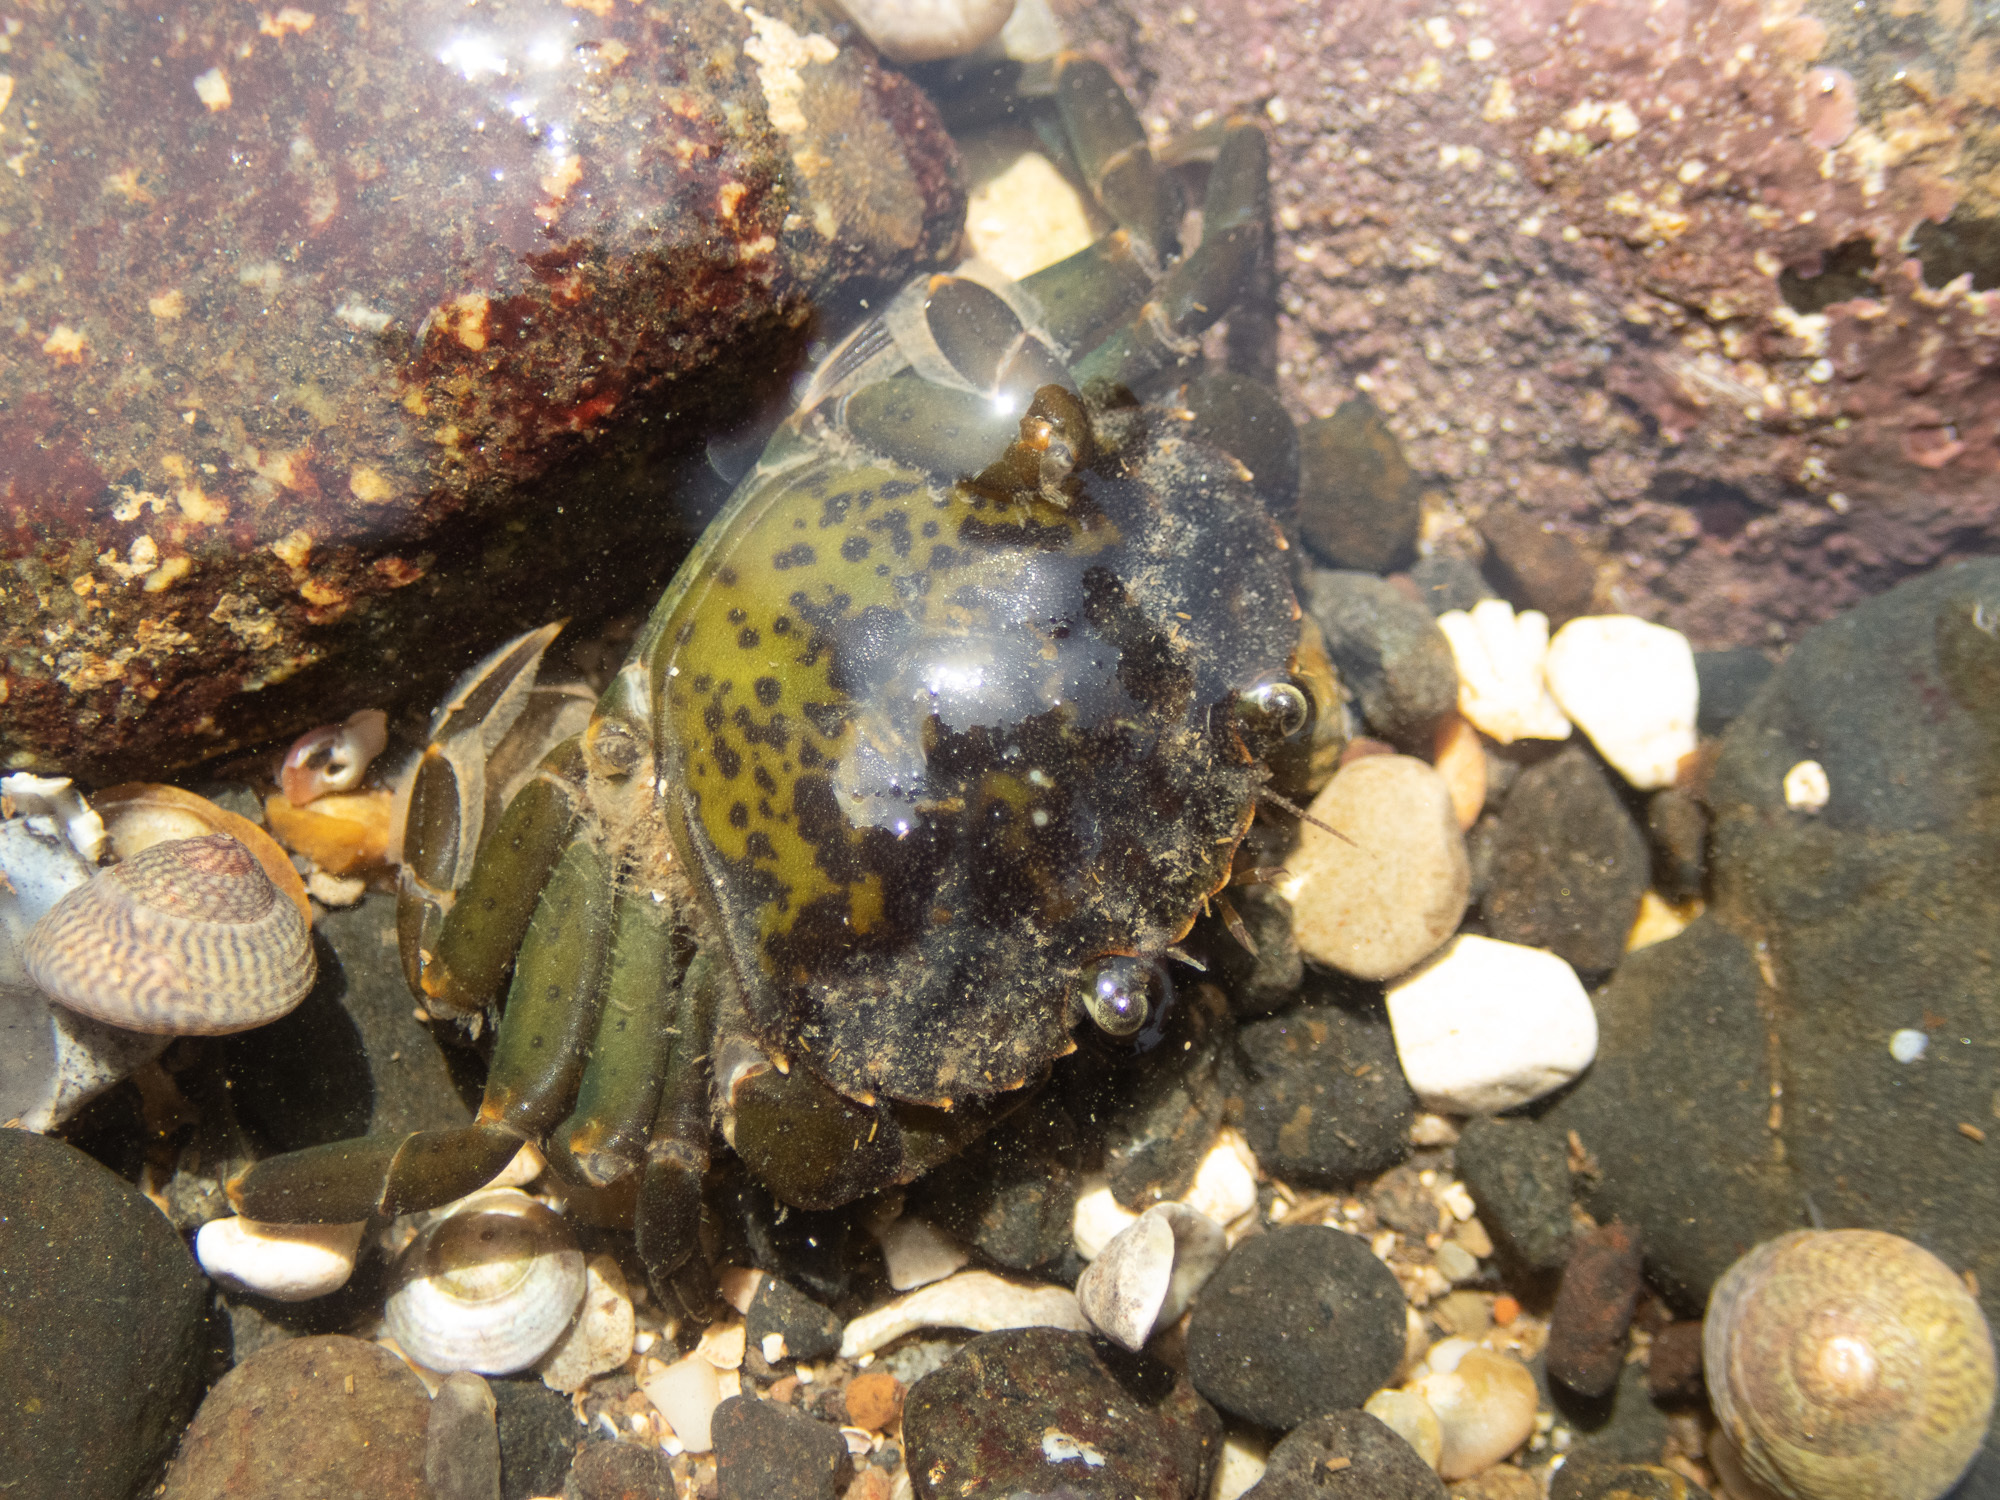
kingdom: Animalia
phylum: Arthropoda
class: Malacostraca
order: Decapoda
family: Carcinidae
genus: Carcinus
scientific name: Carcinus maenas
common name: European green crab
